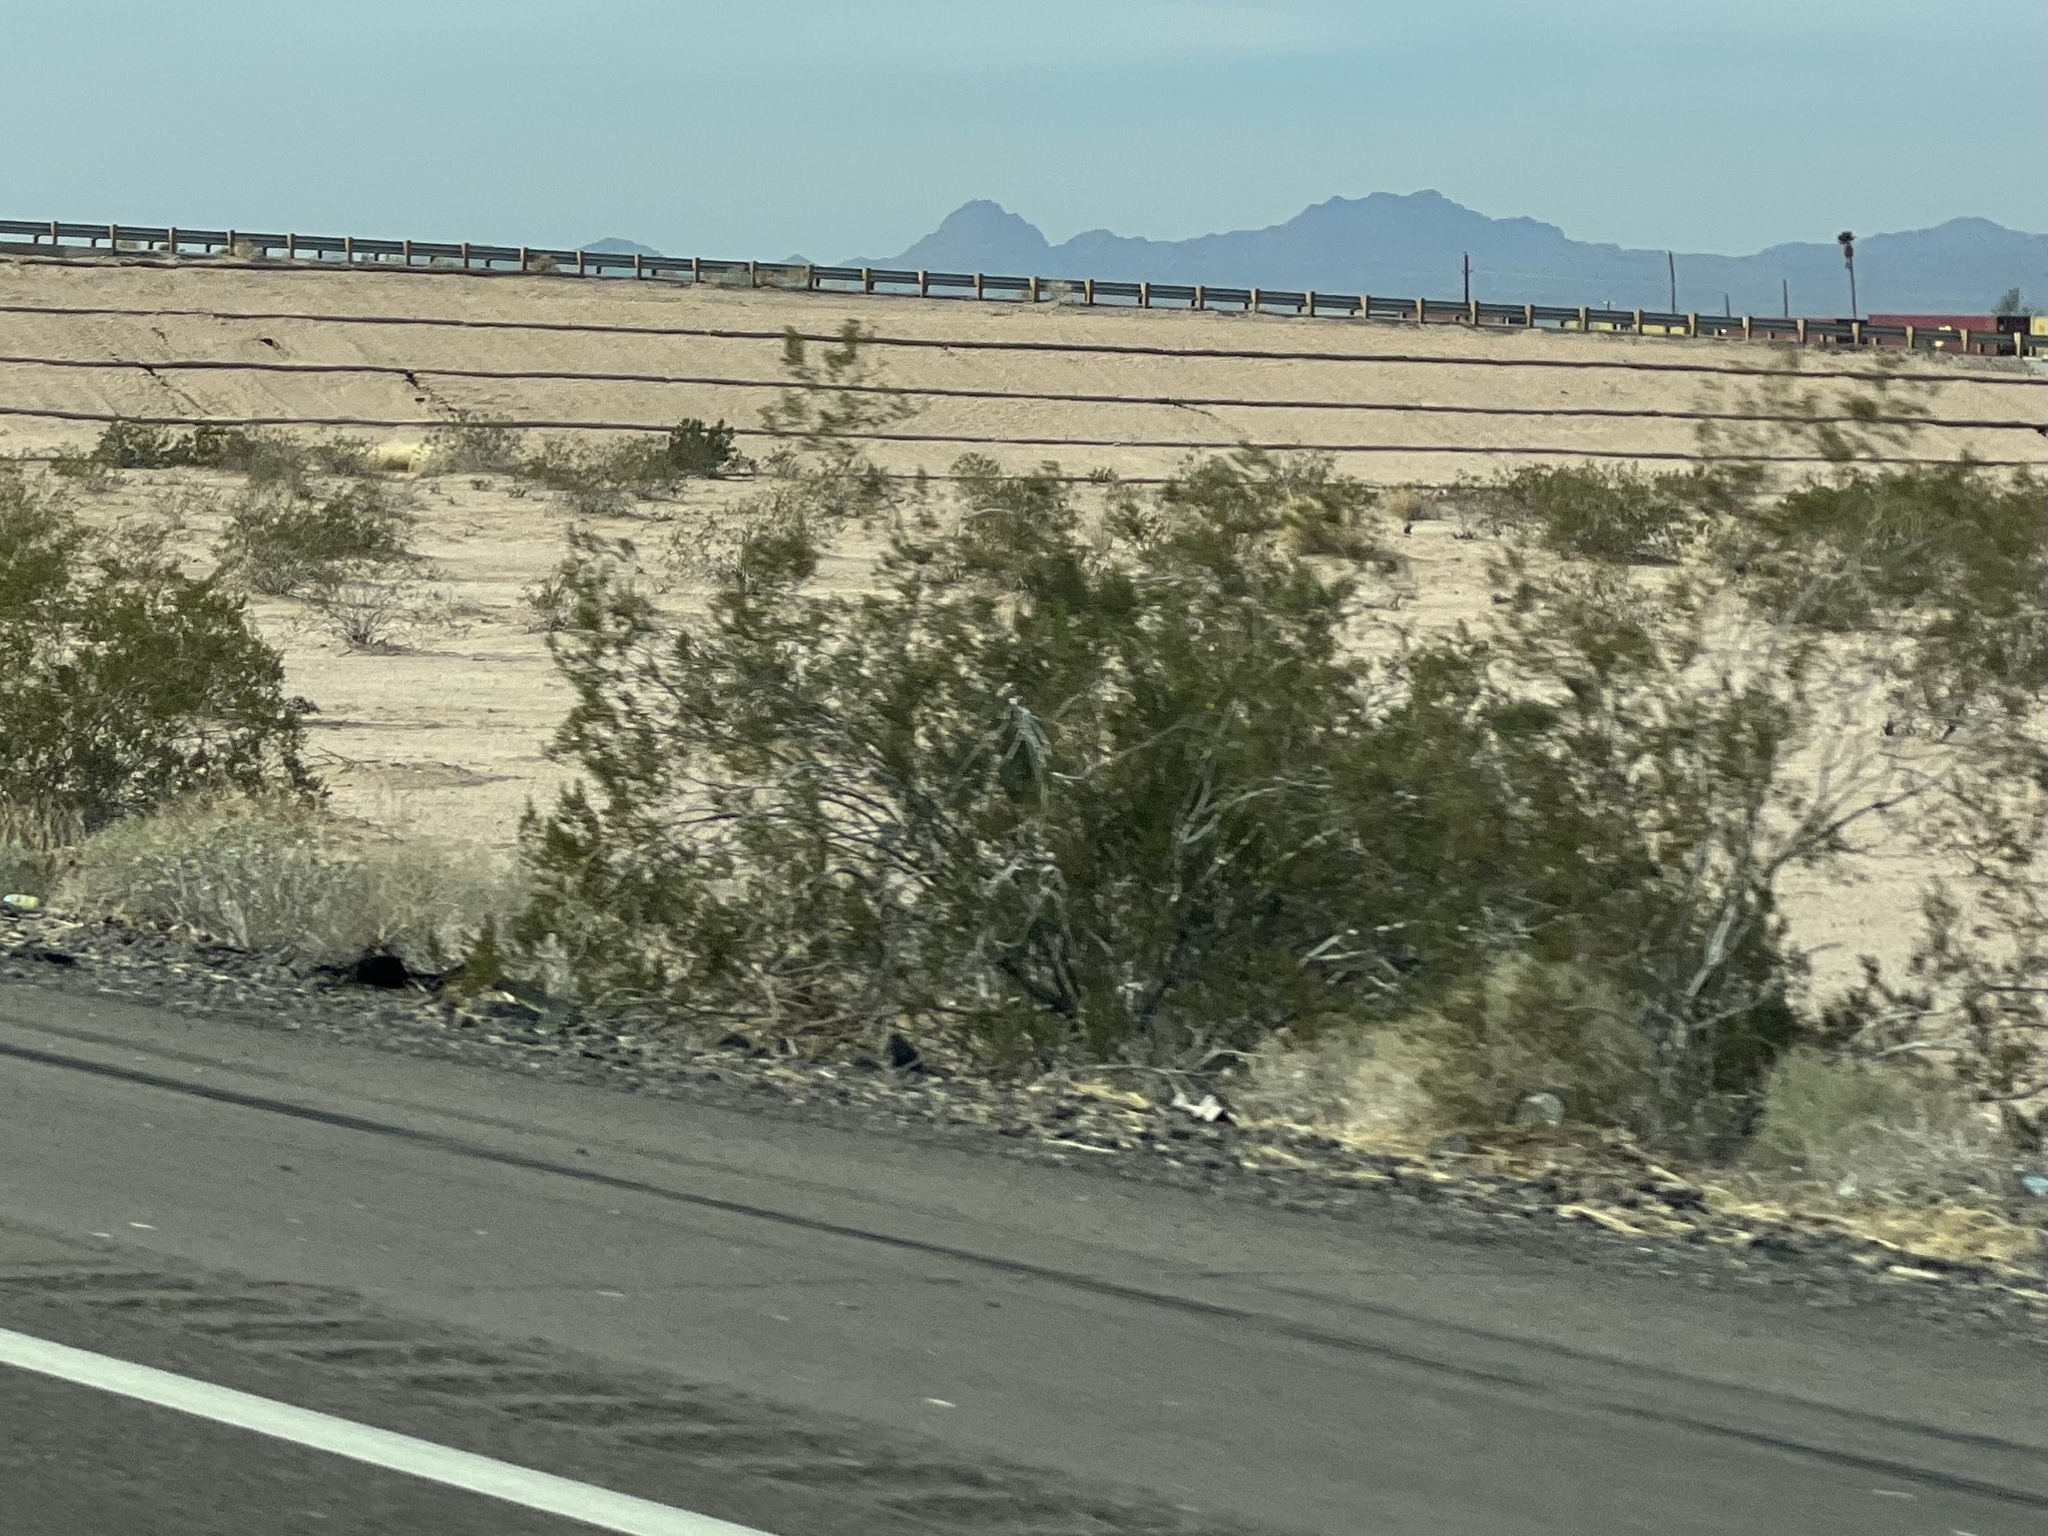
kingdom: Plantae
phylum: Tracheophyta
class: Magnoliopsida
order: Zygophyllales
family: Zygophyllaceae
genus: Larrea
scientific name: Larrea tridentata
